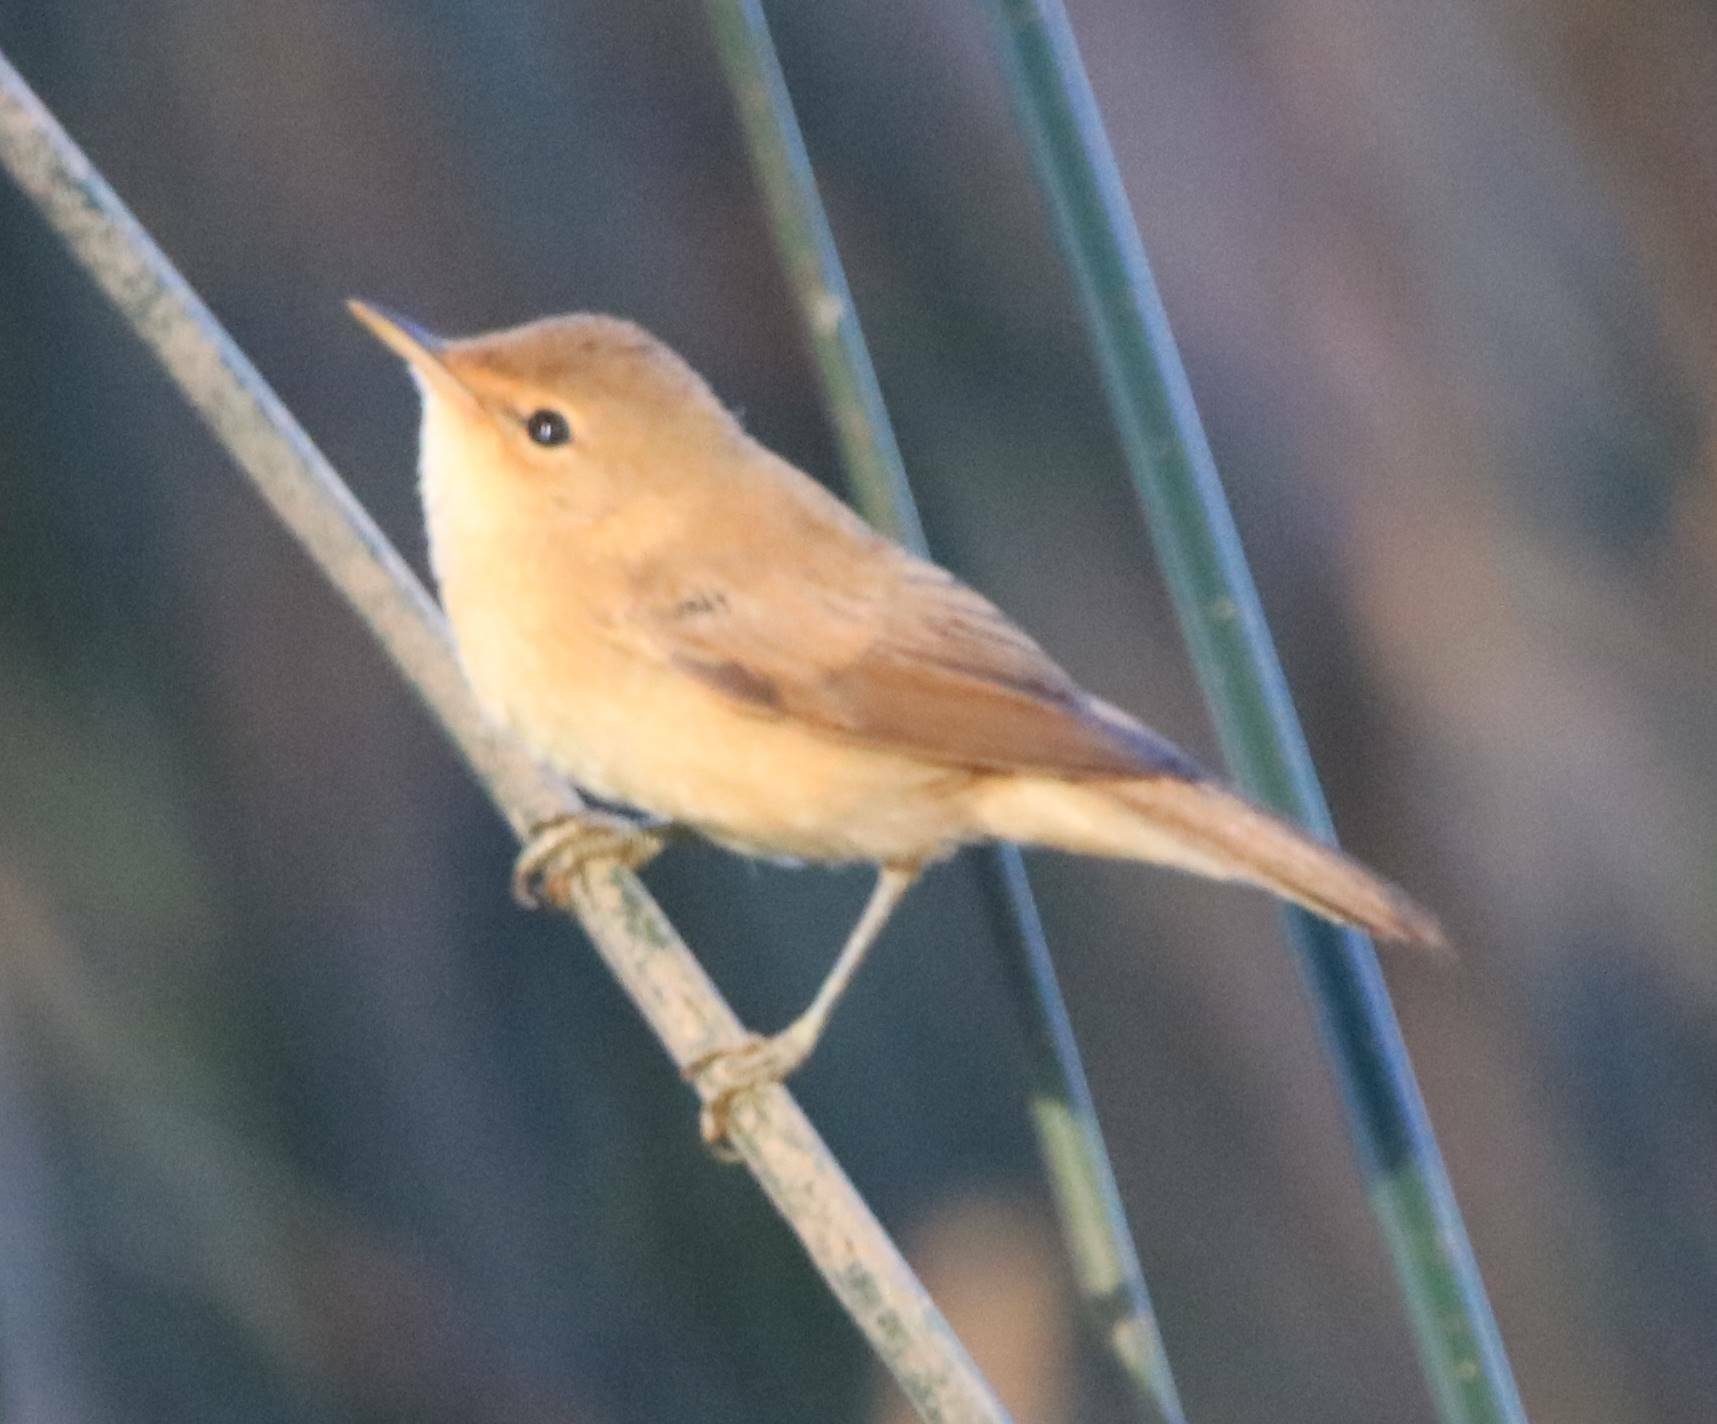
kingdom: Animalia
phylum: Chordata
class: Aves
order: Passeriformes
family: Acrocephalidae
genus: Acrocephalus
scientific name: Acrocephalus scirpaceus
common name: Eurasian reed warbler
